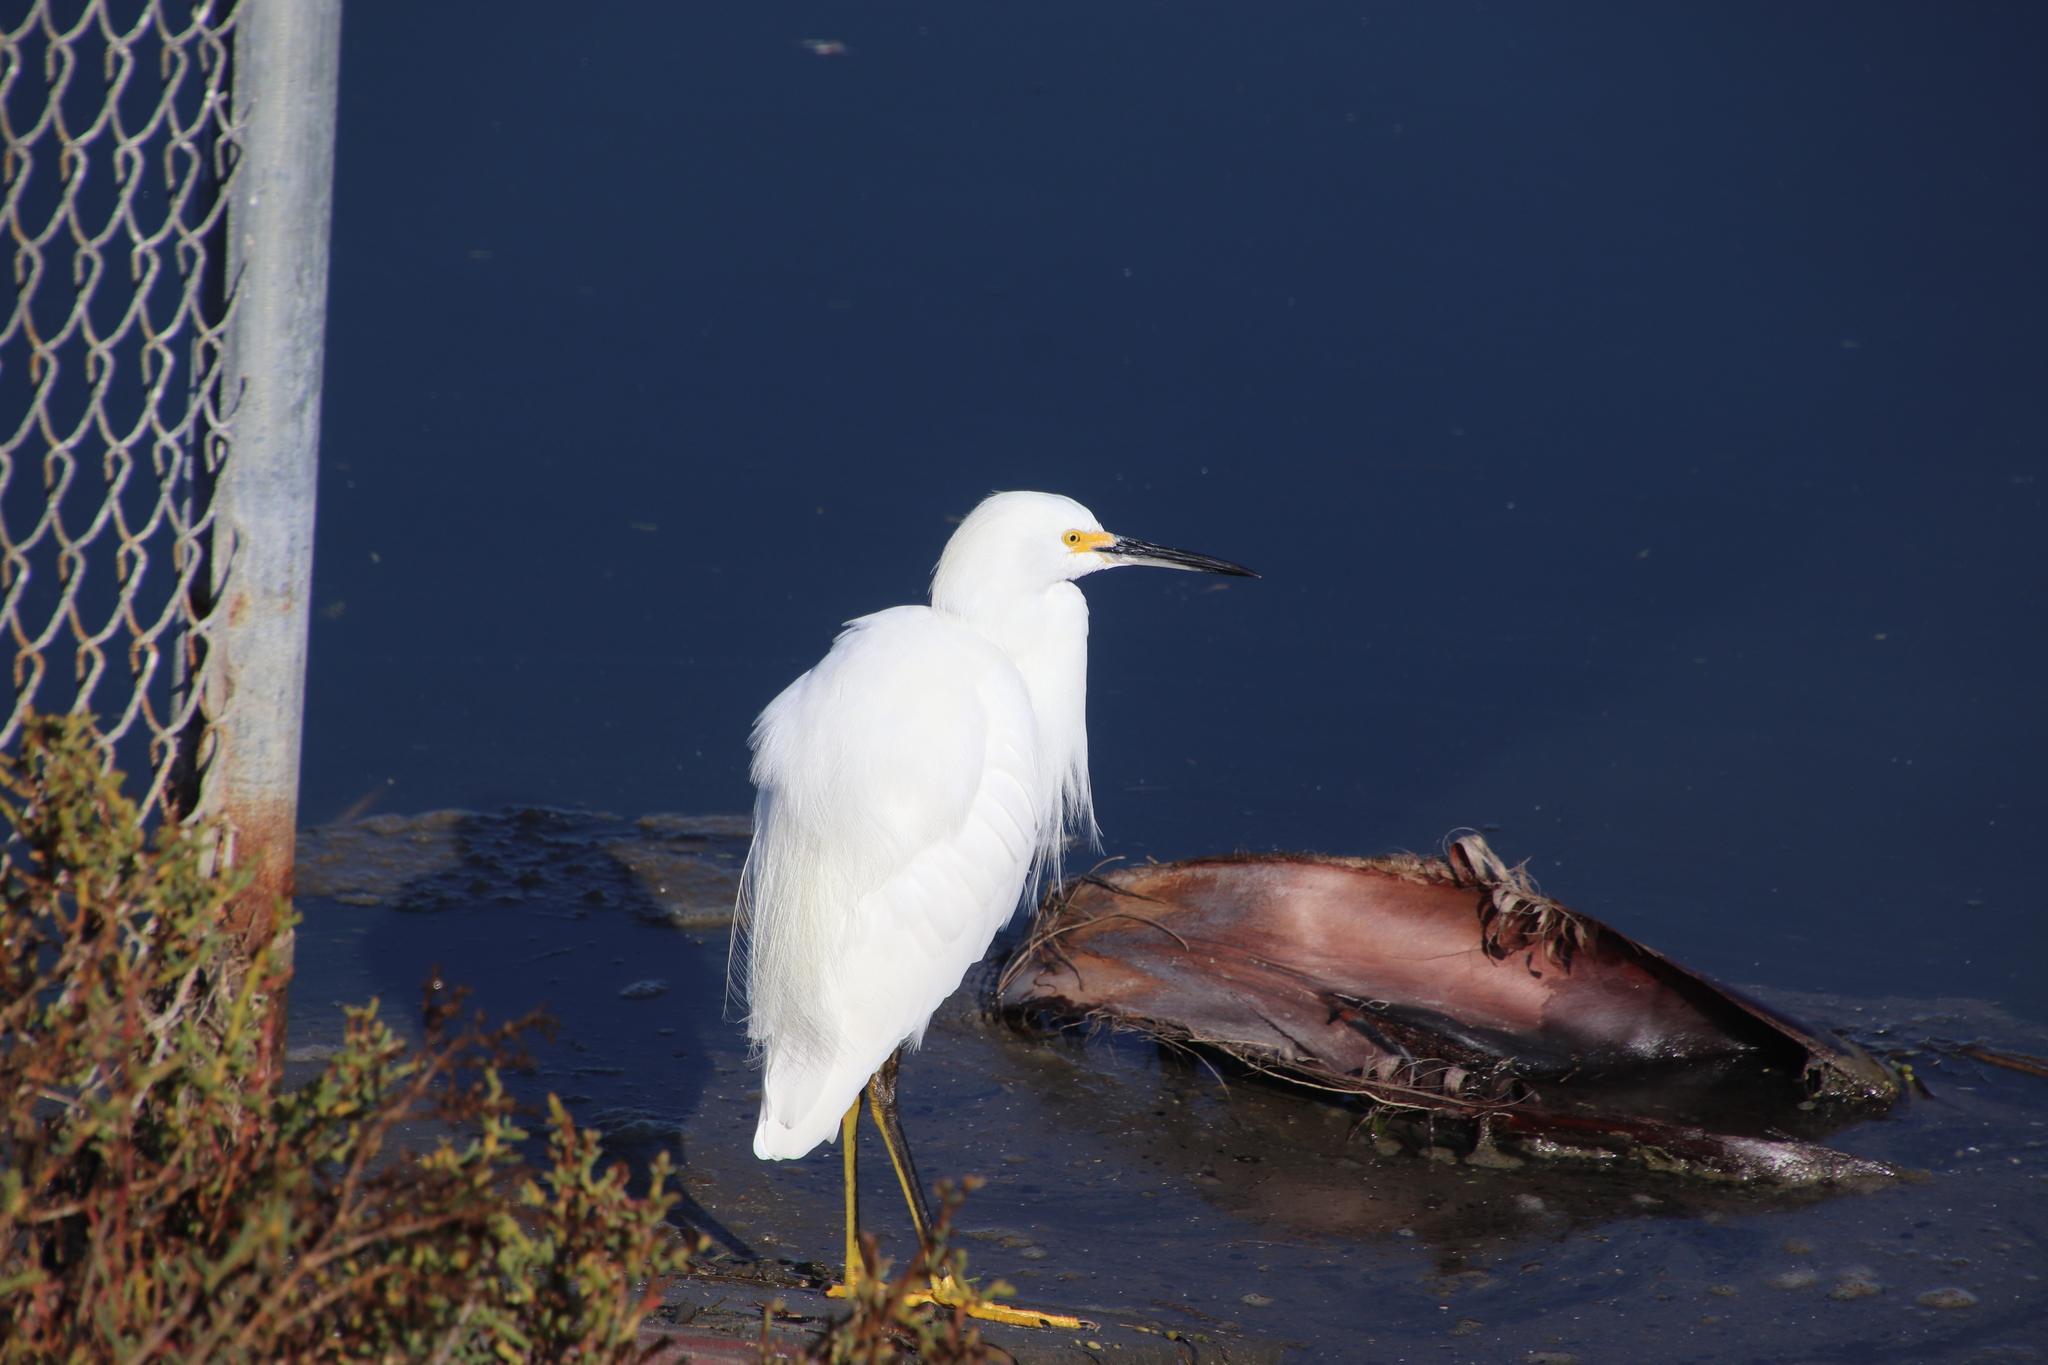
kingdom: Animalia
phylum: Chordata
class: Aves
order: Pelecaniformes
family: Ardeidae
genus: Egretta
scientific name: Egretta thula
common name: Snowy egret
